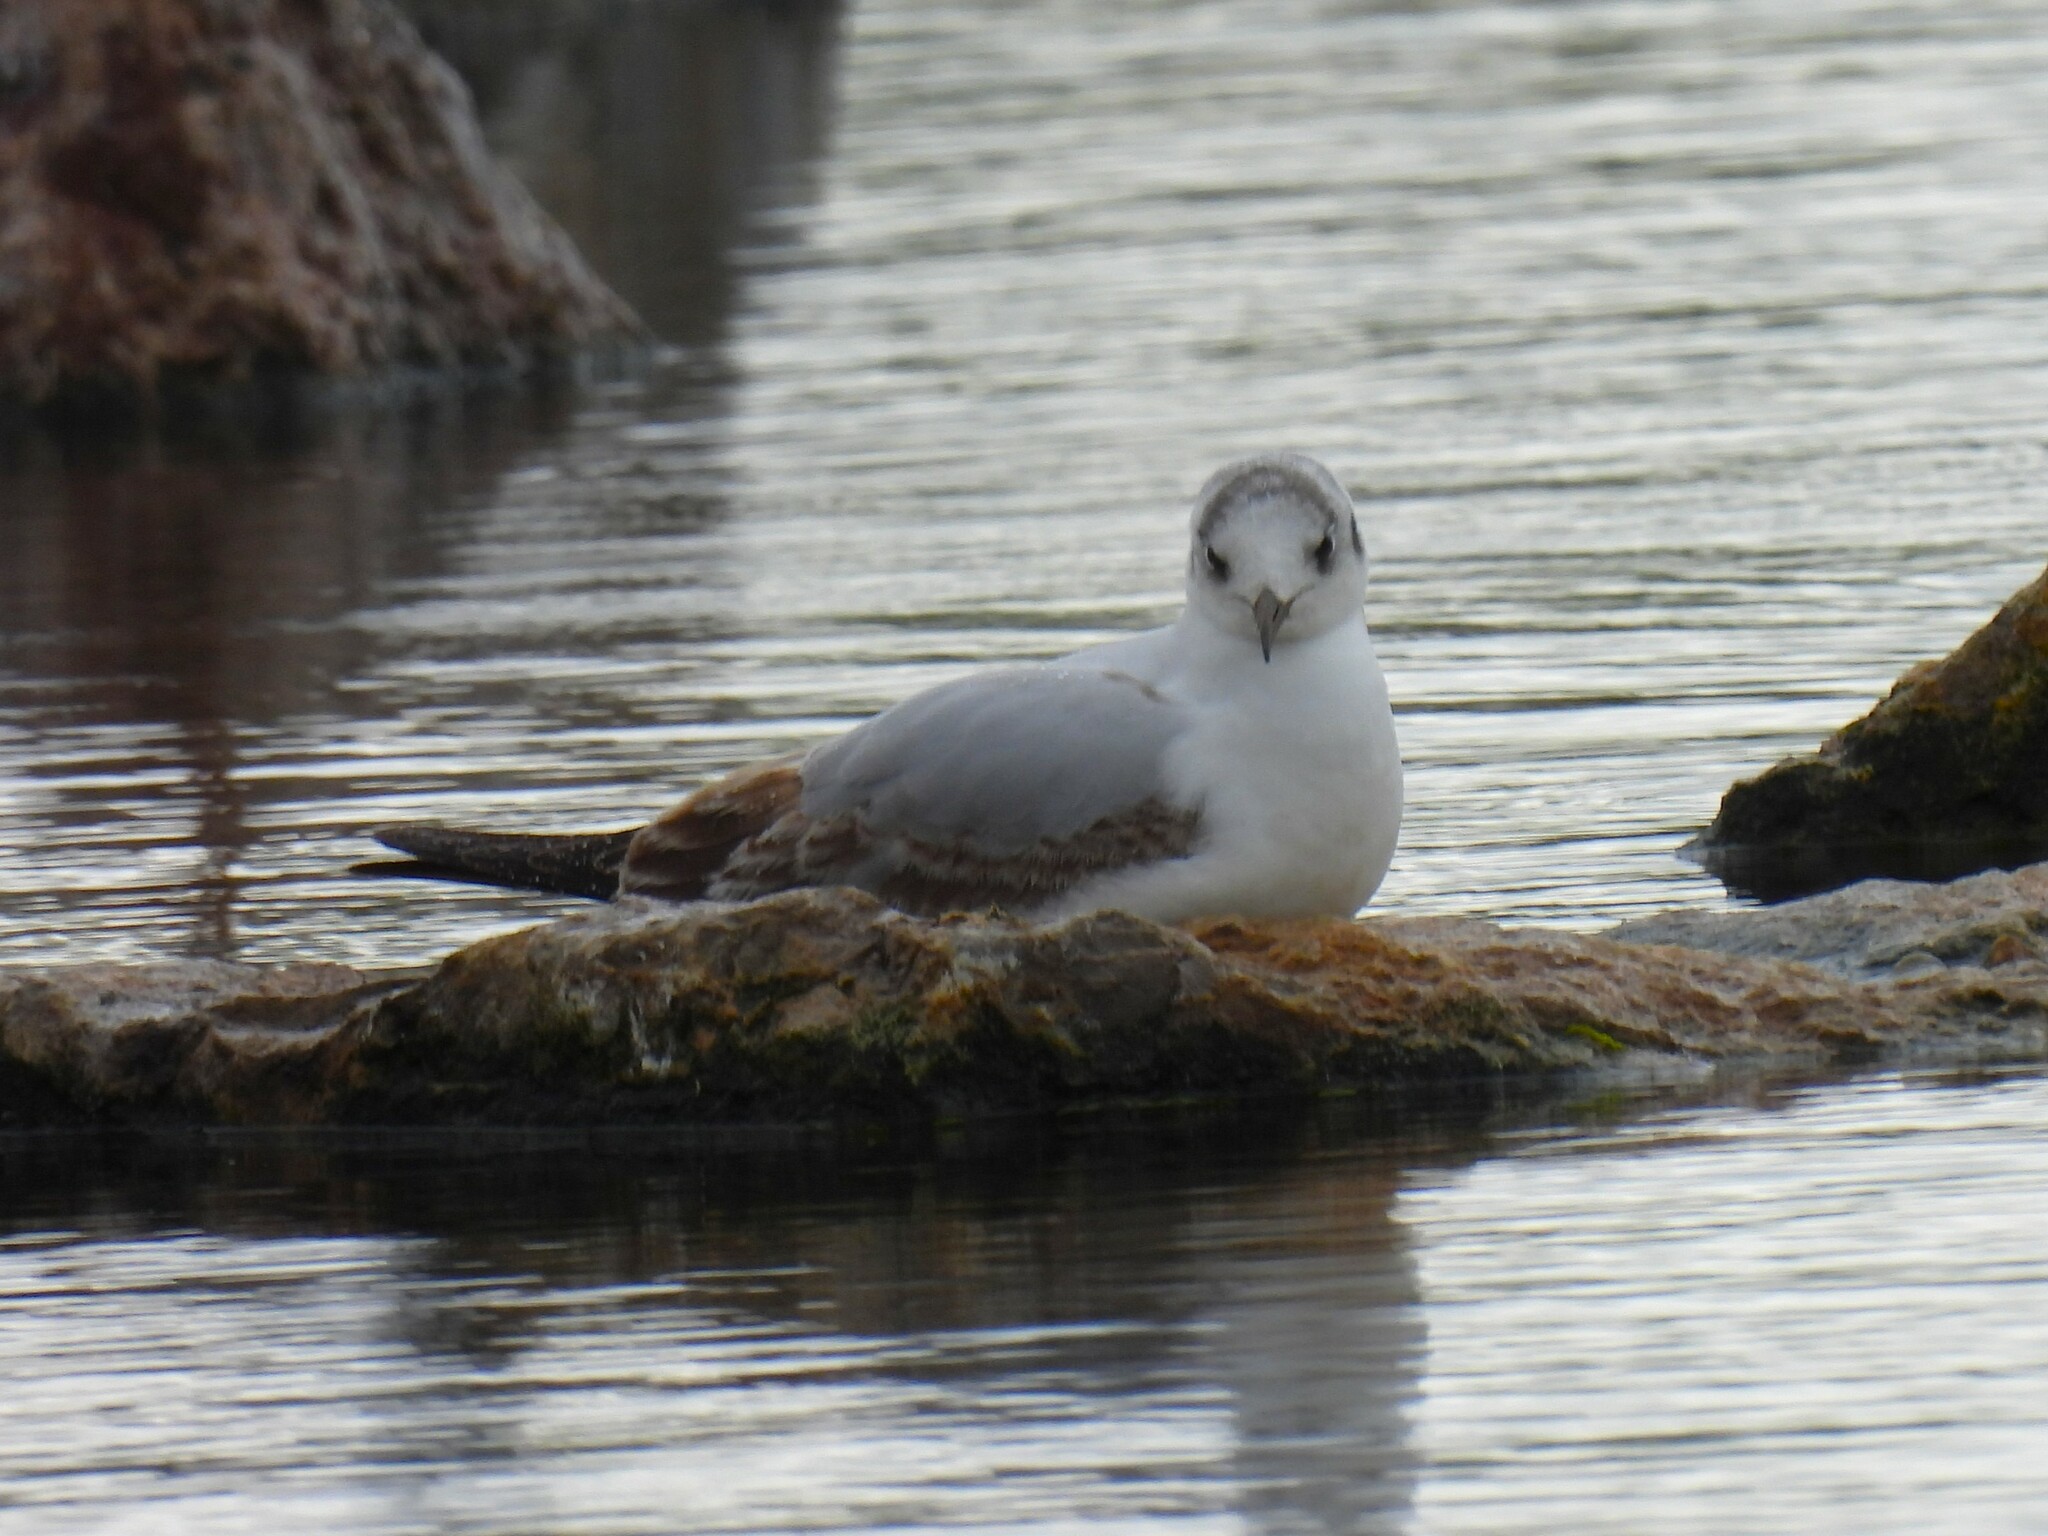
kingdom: Animalia
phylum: Chordata
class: Aves
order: Charadriiformes
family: Laridae
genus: Chroicocephalus
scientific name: Chroicocephalus ridibundus
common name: Black-headed gull
